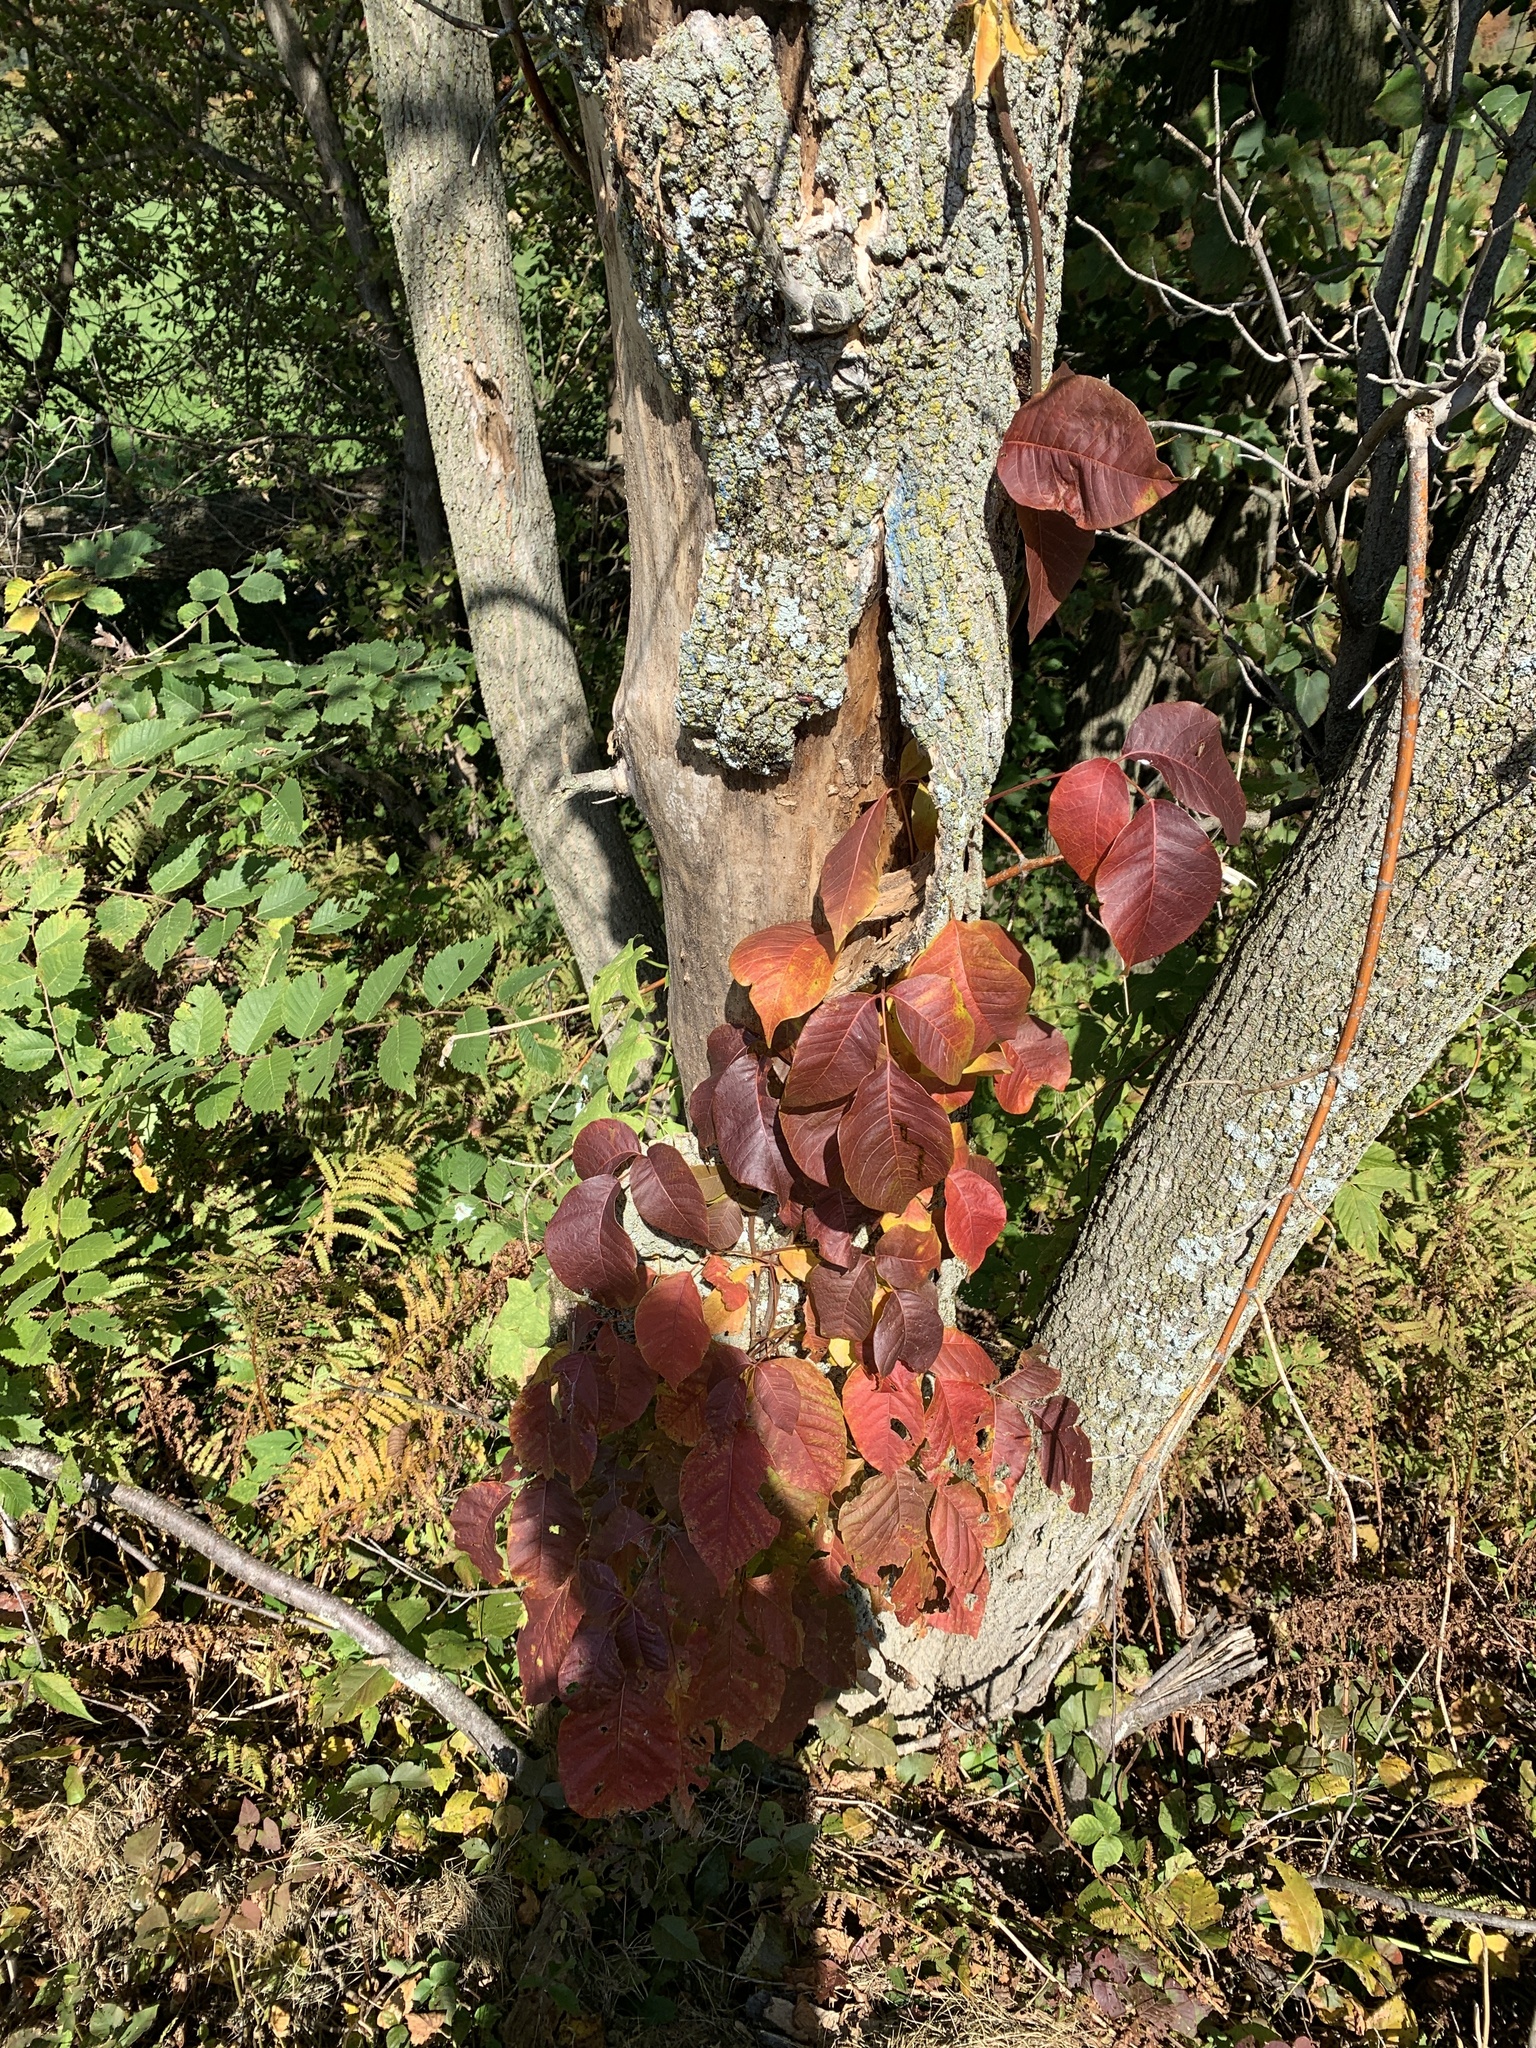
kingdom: Plantae
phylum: Tracheophyta
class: Magnoliopsida
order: Sapindales
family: Anacardiaceae
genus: Toxicodendron
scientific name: Toxicodendron radicans
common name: Poison ivy
